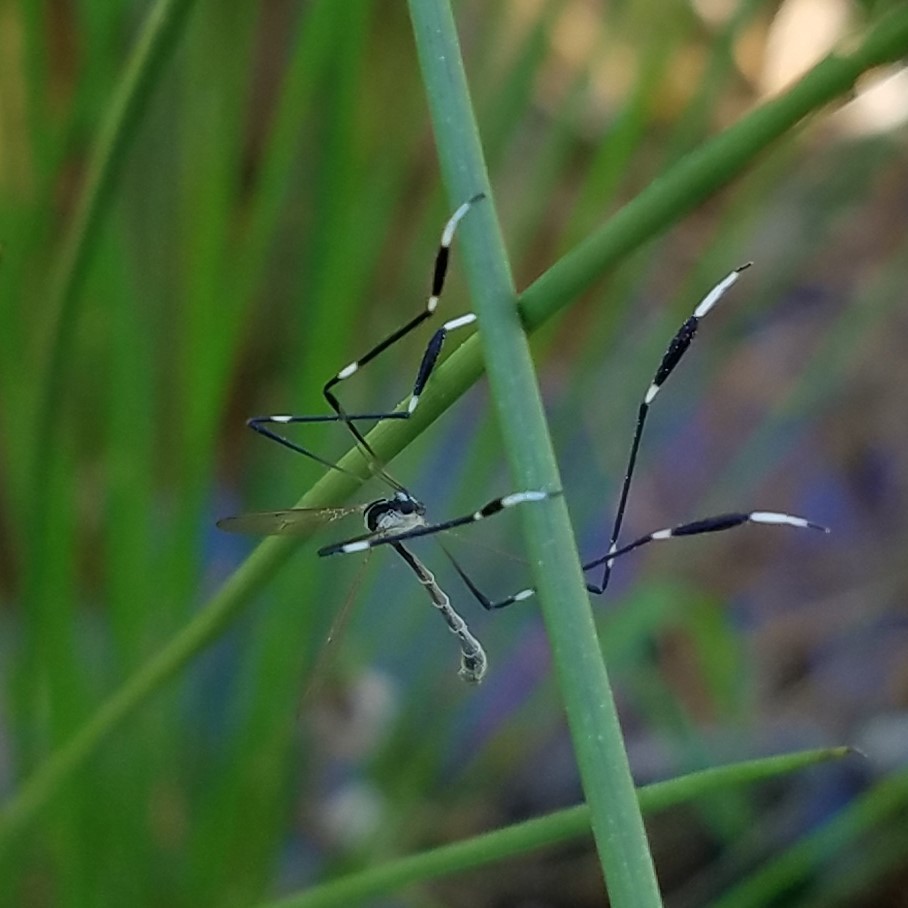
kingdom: Animalia
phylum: Arthropoda
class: Insecta
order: Diptera
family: Ptychopteridae
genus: Bittacomorpha
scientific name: Bittacomorpha clavipes
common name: Eastern phantom crane fly
